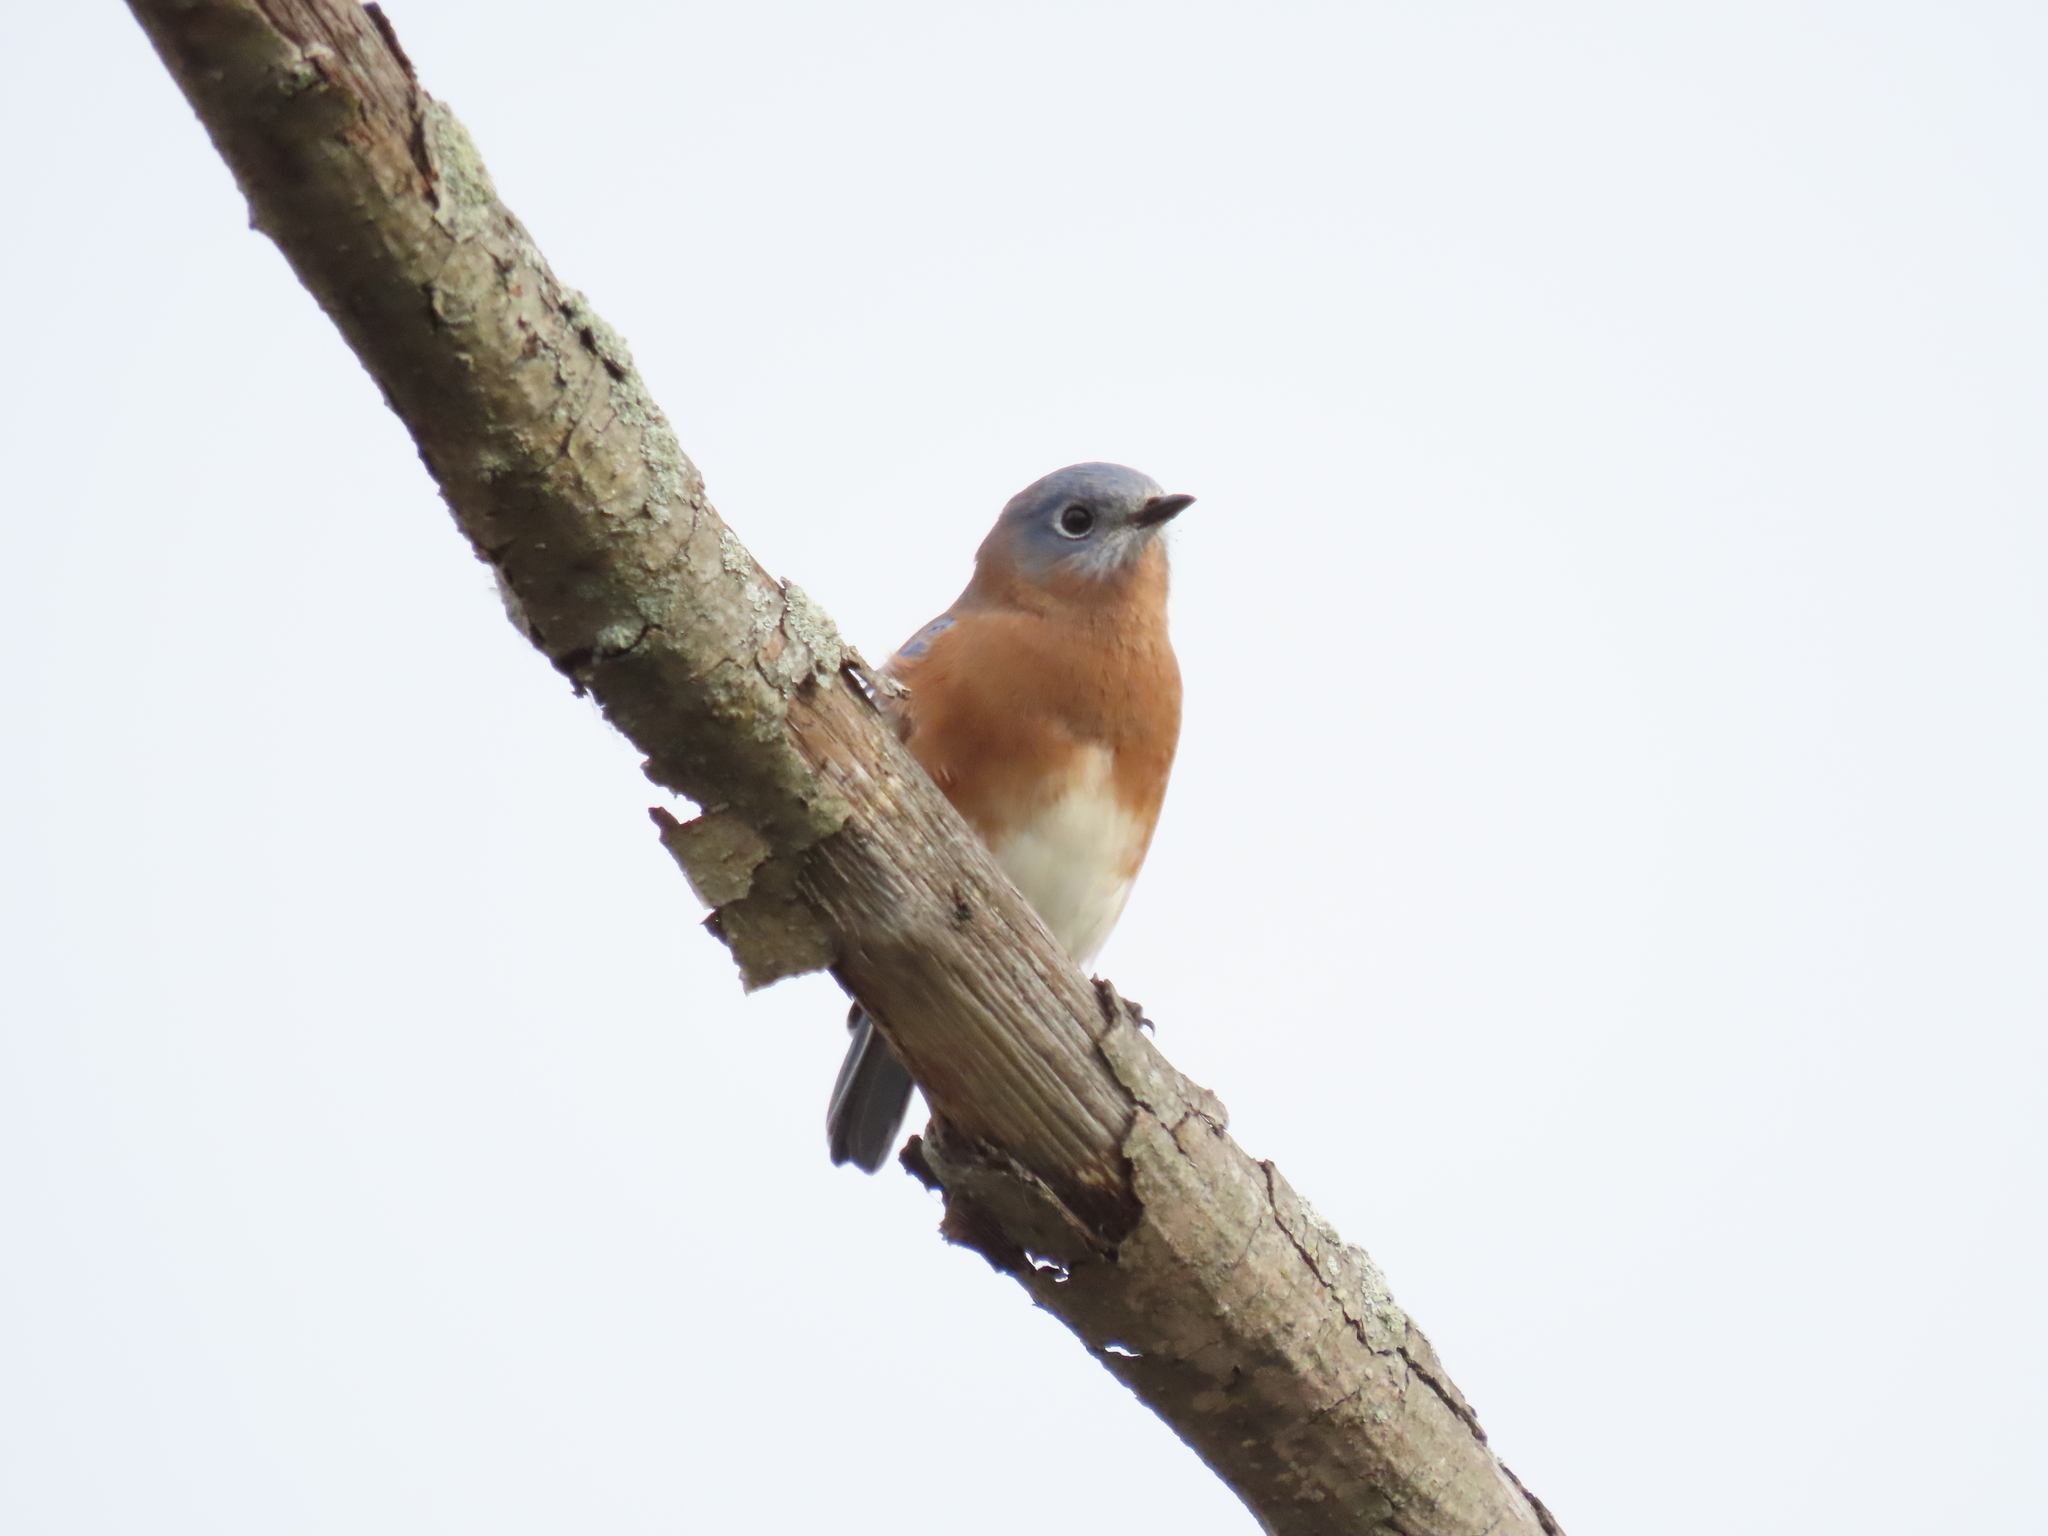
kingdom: Animalia
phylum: Chordata
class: Aves
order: Passeriformes
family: Turdidae
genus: Sialia
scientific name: Sialia sialis
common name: Eastern bluebird
